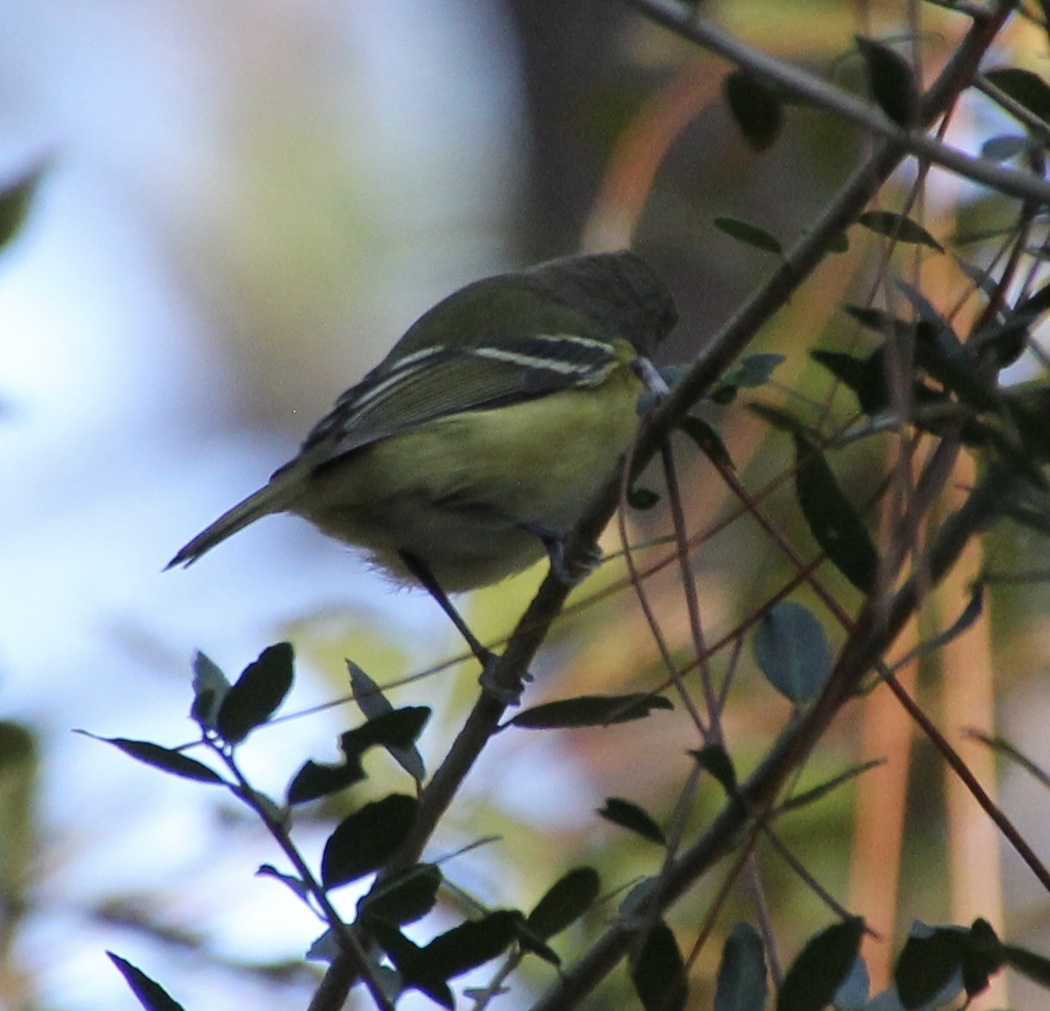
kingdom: Animalia
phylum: Chordata
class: Aves
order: Passeriformes
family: Vireonidae
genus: Vireo
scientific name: Vireo griseus
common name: White-eyed vireo
